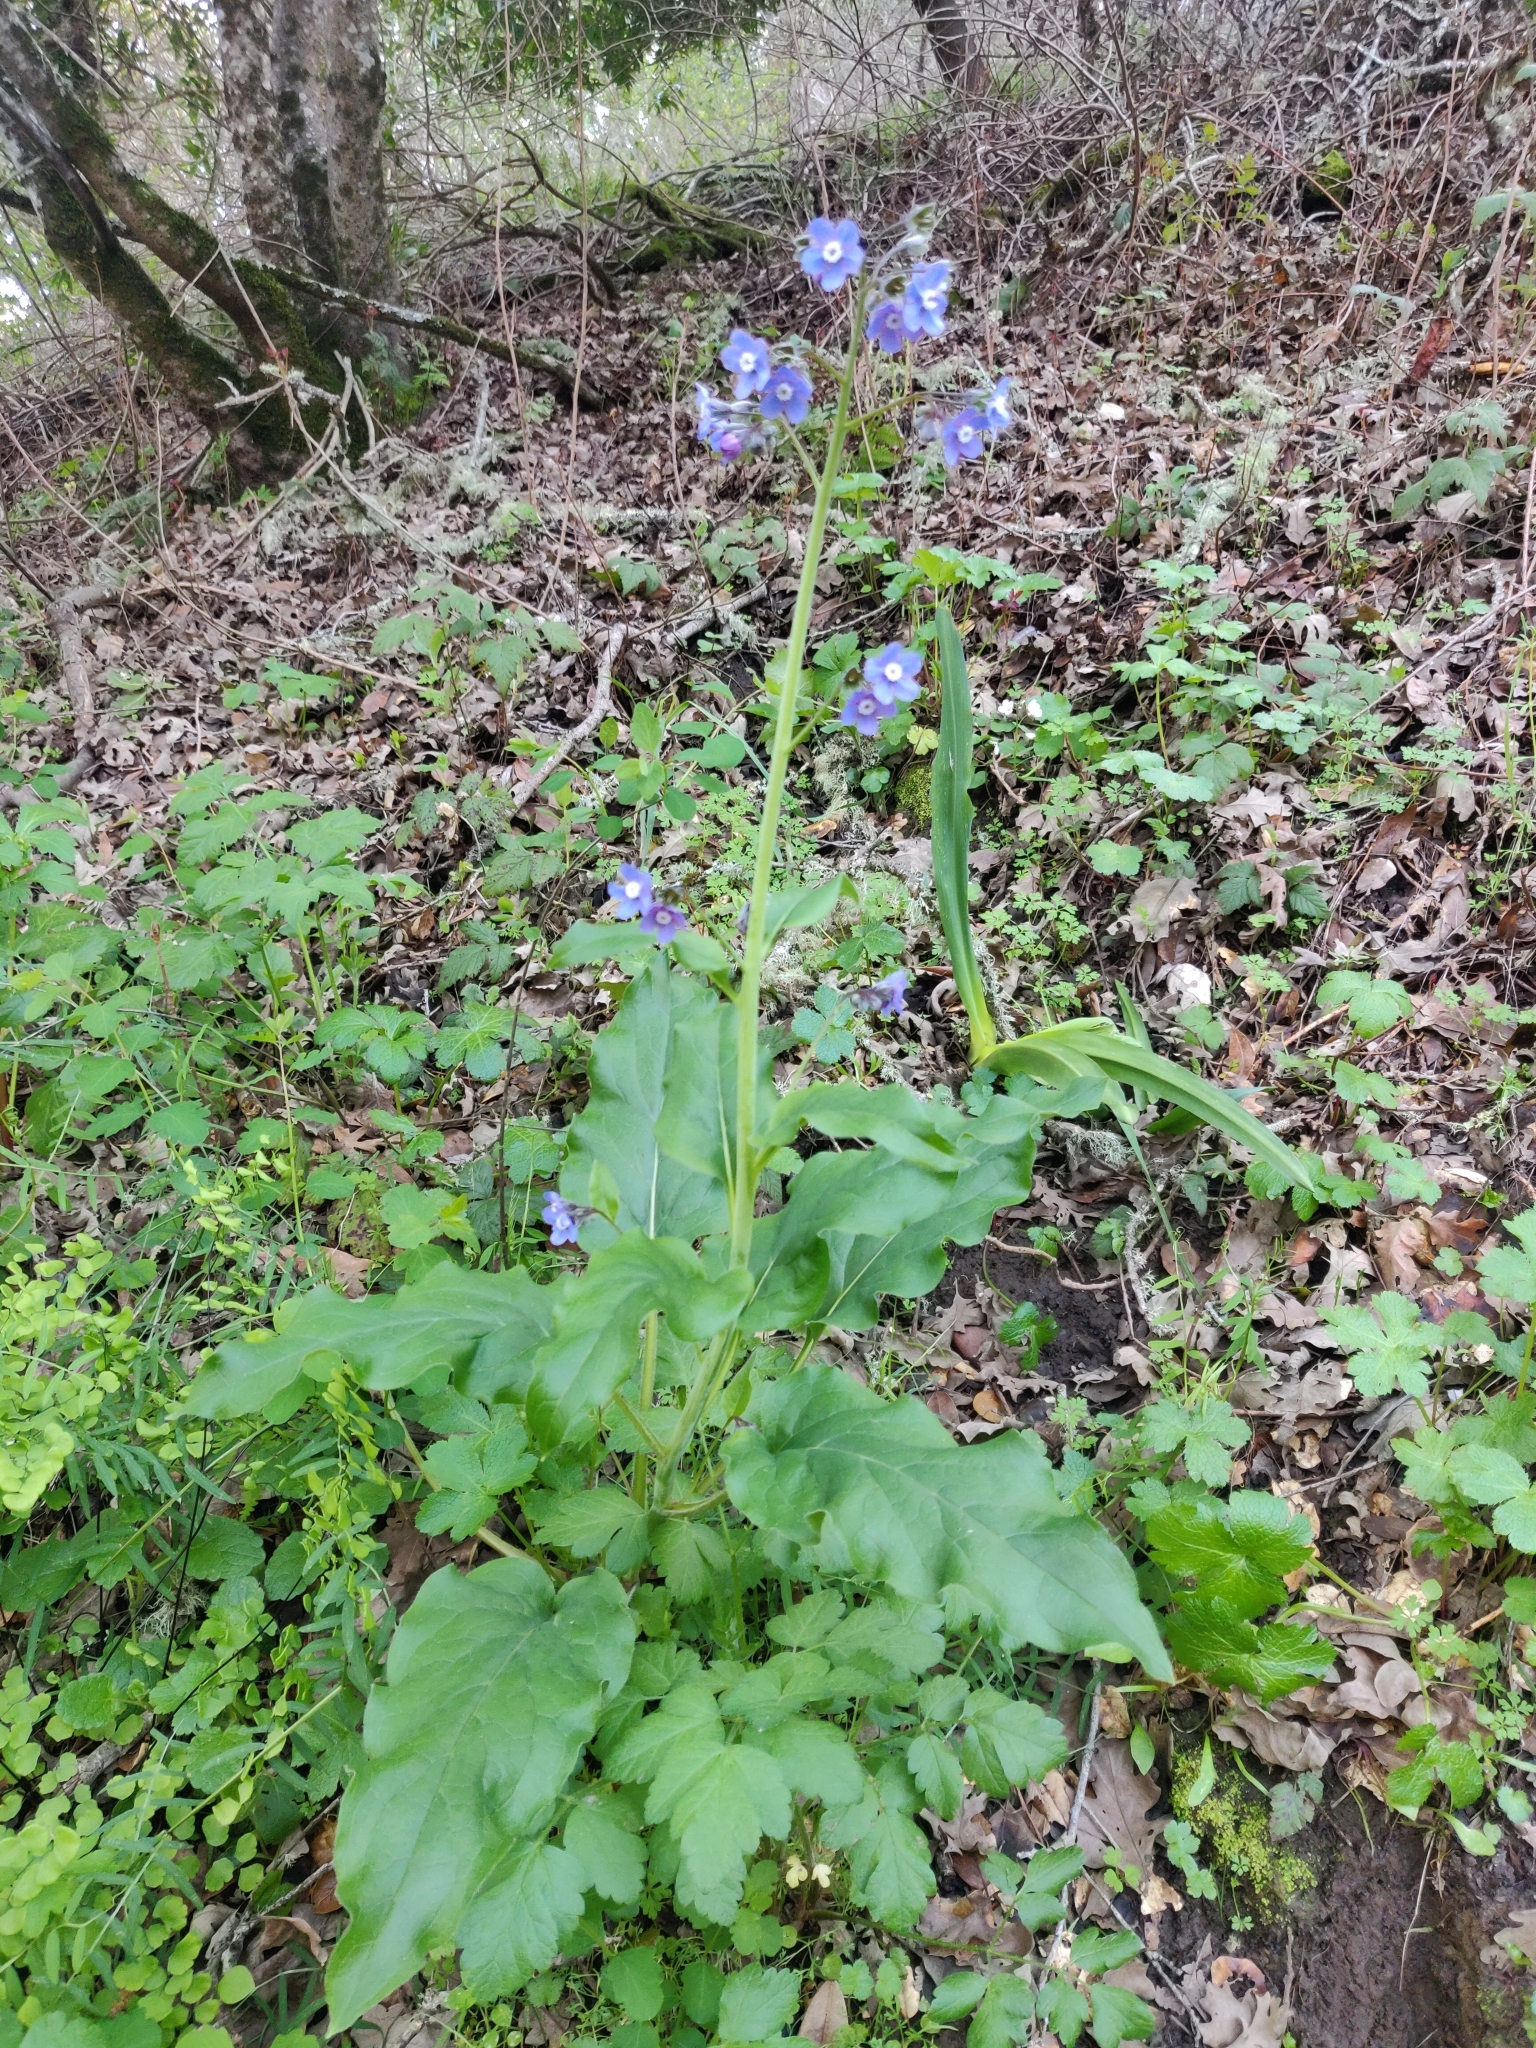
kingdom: Plantae
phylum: Tracheophyta
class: Magnoliopsida
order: Boraginales
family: Boraginaceae
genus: Adelinia
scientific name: Adelinia grande
